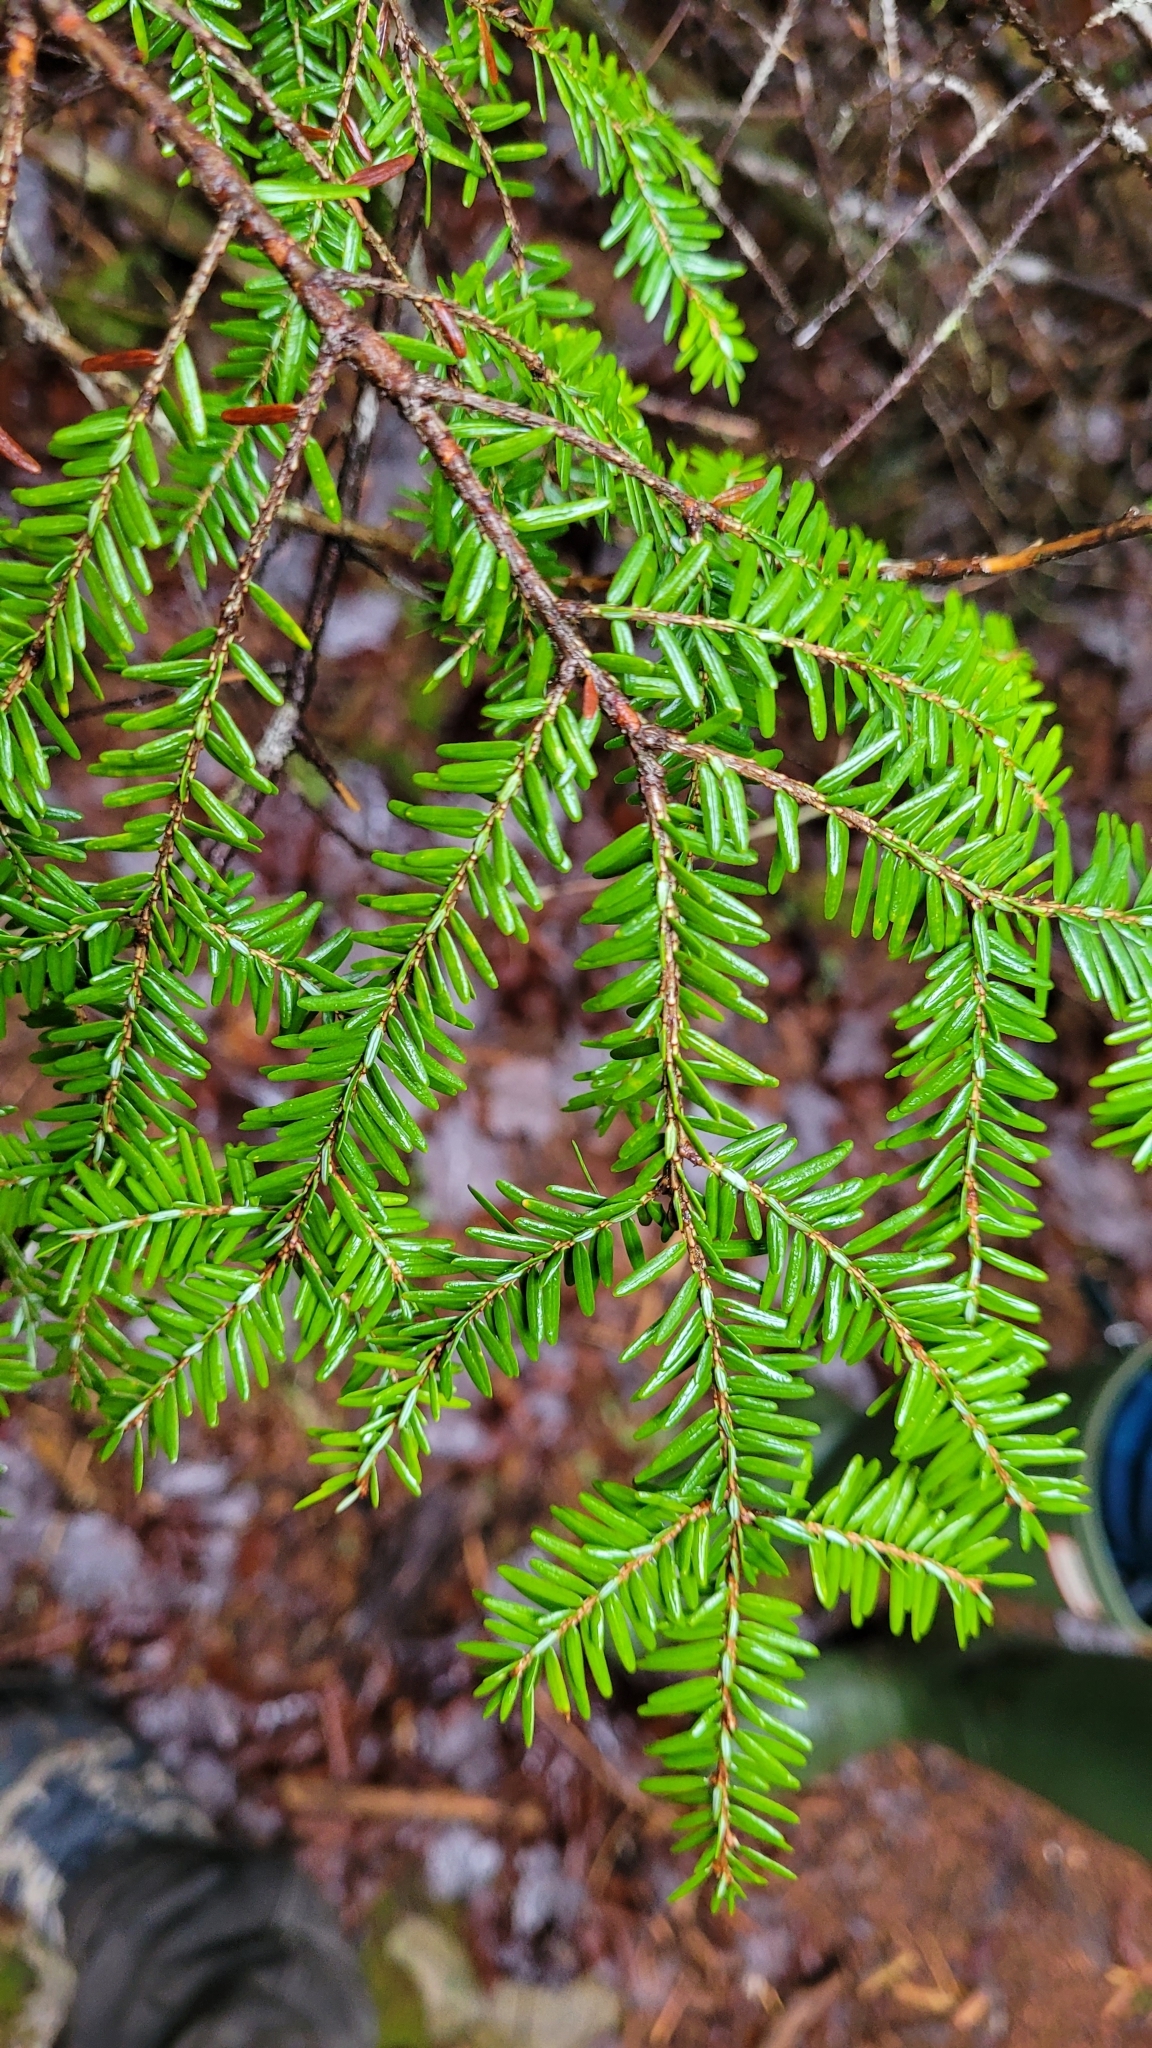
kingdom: Plantae
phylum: Tracheophyta
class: Pinopsida
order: Pinales
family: Pinaceae
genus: Tsuga
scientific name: Tsuga canadensis
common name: Eastern hemlock
